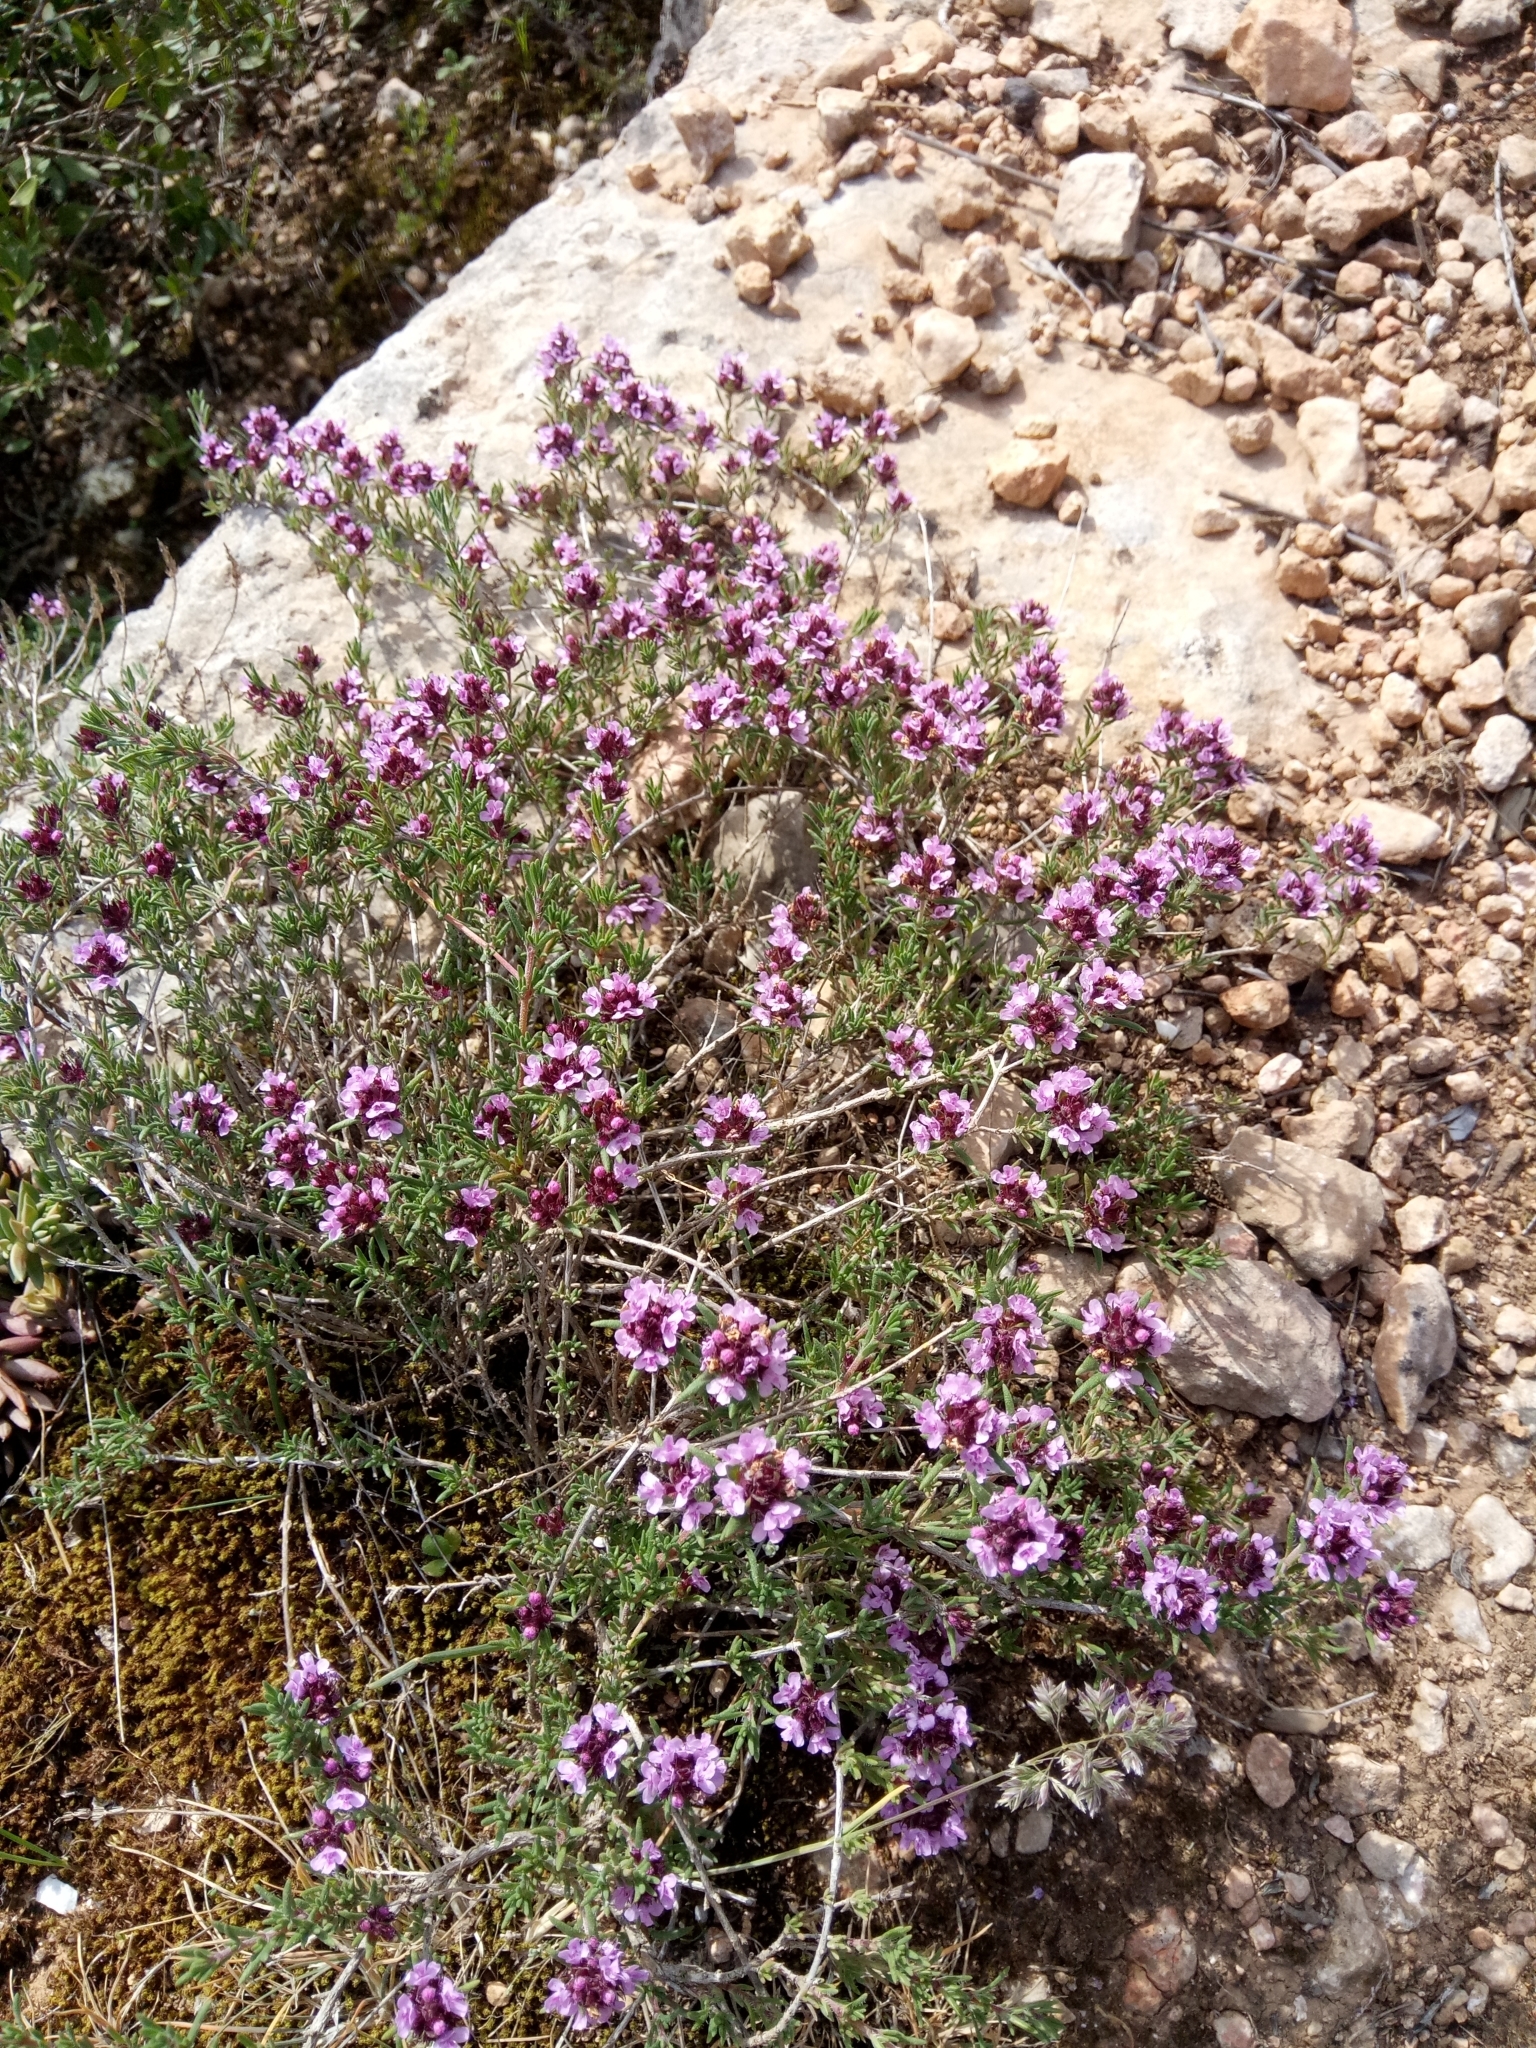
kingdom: Plantae
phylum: Tracheophyta
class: Magnoliopsida
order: Lamiales
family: Lamiaceae
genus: Thymus
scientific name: Thymus willdenowii
